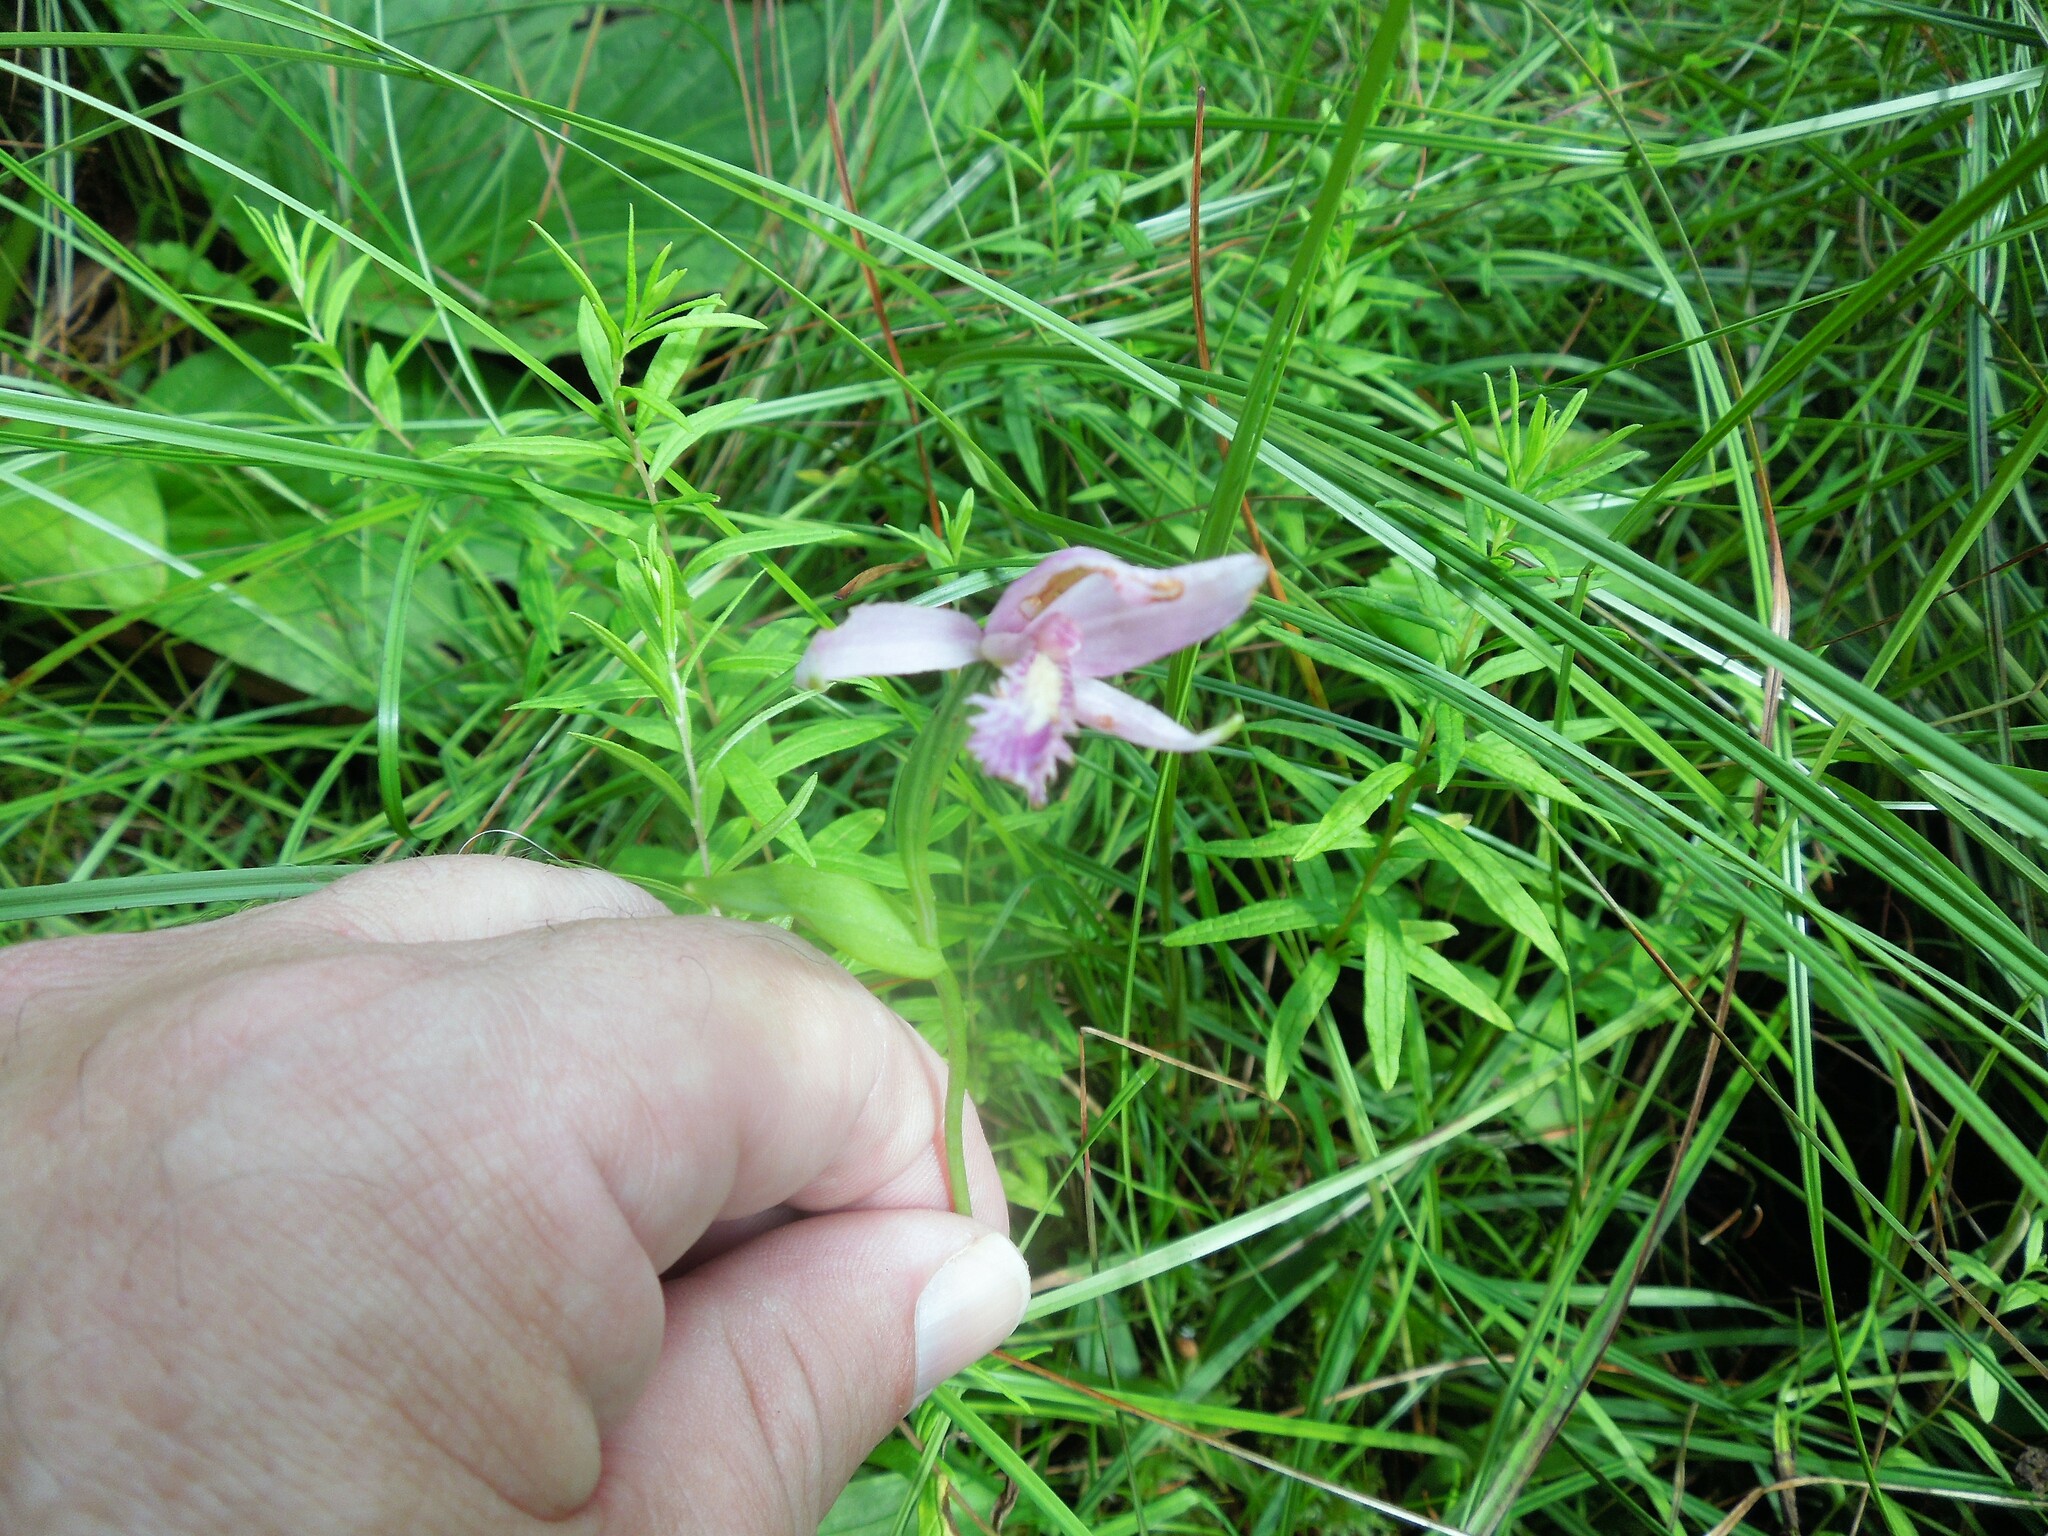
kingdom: Plantae
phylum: Tracheophyta
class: Liliopsida
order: Asparagales
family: Orchidaceae
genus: Pogonia
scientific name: Pogonia ophioglossoides
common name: Rose pogonia
